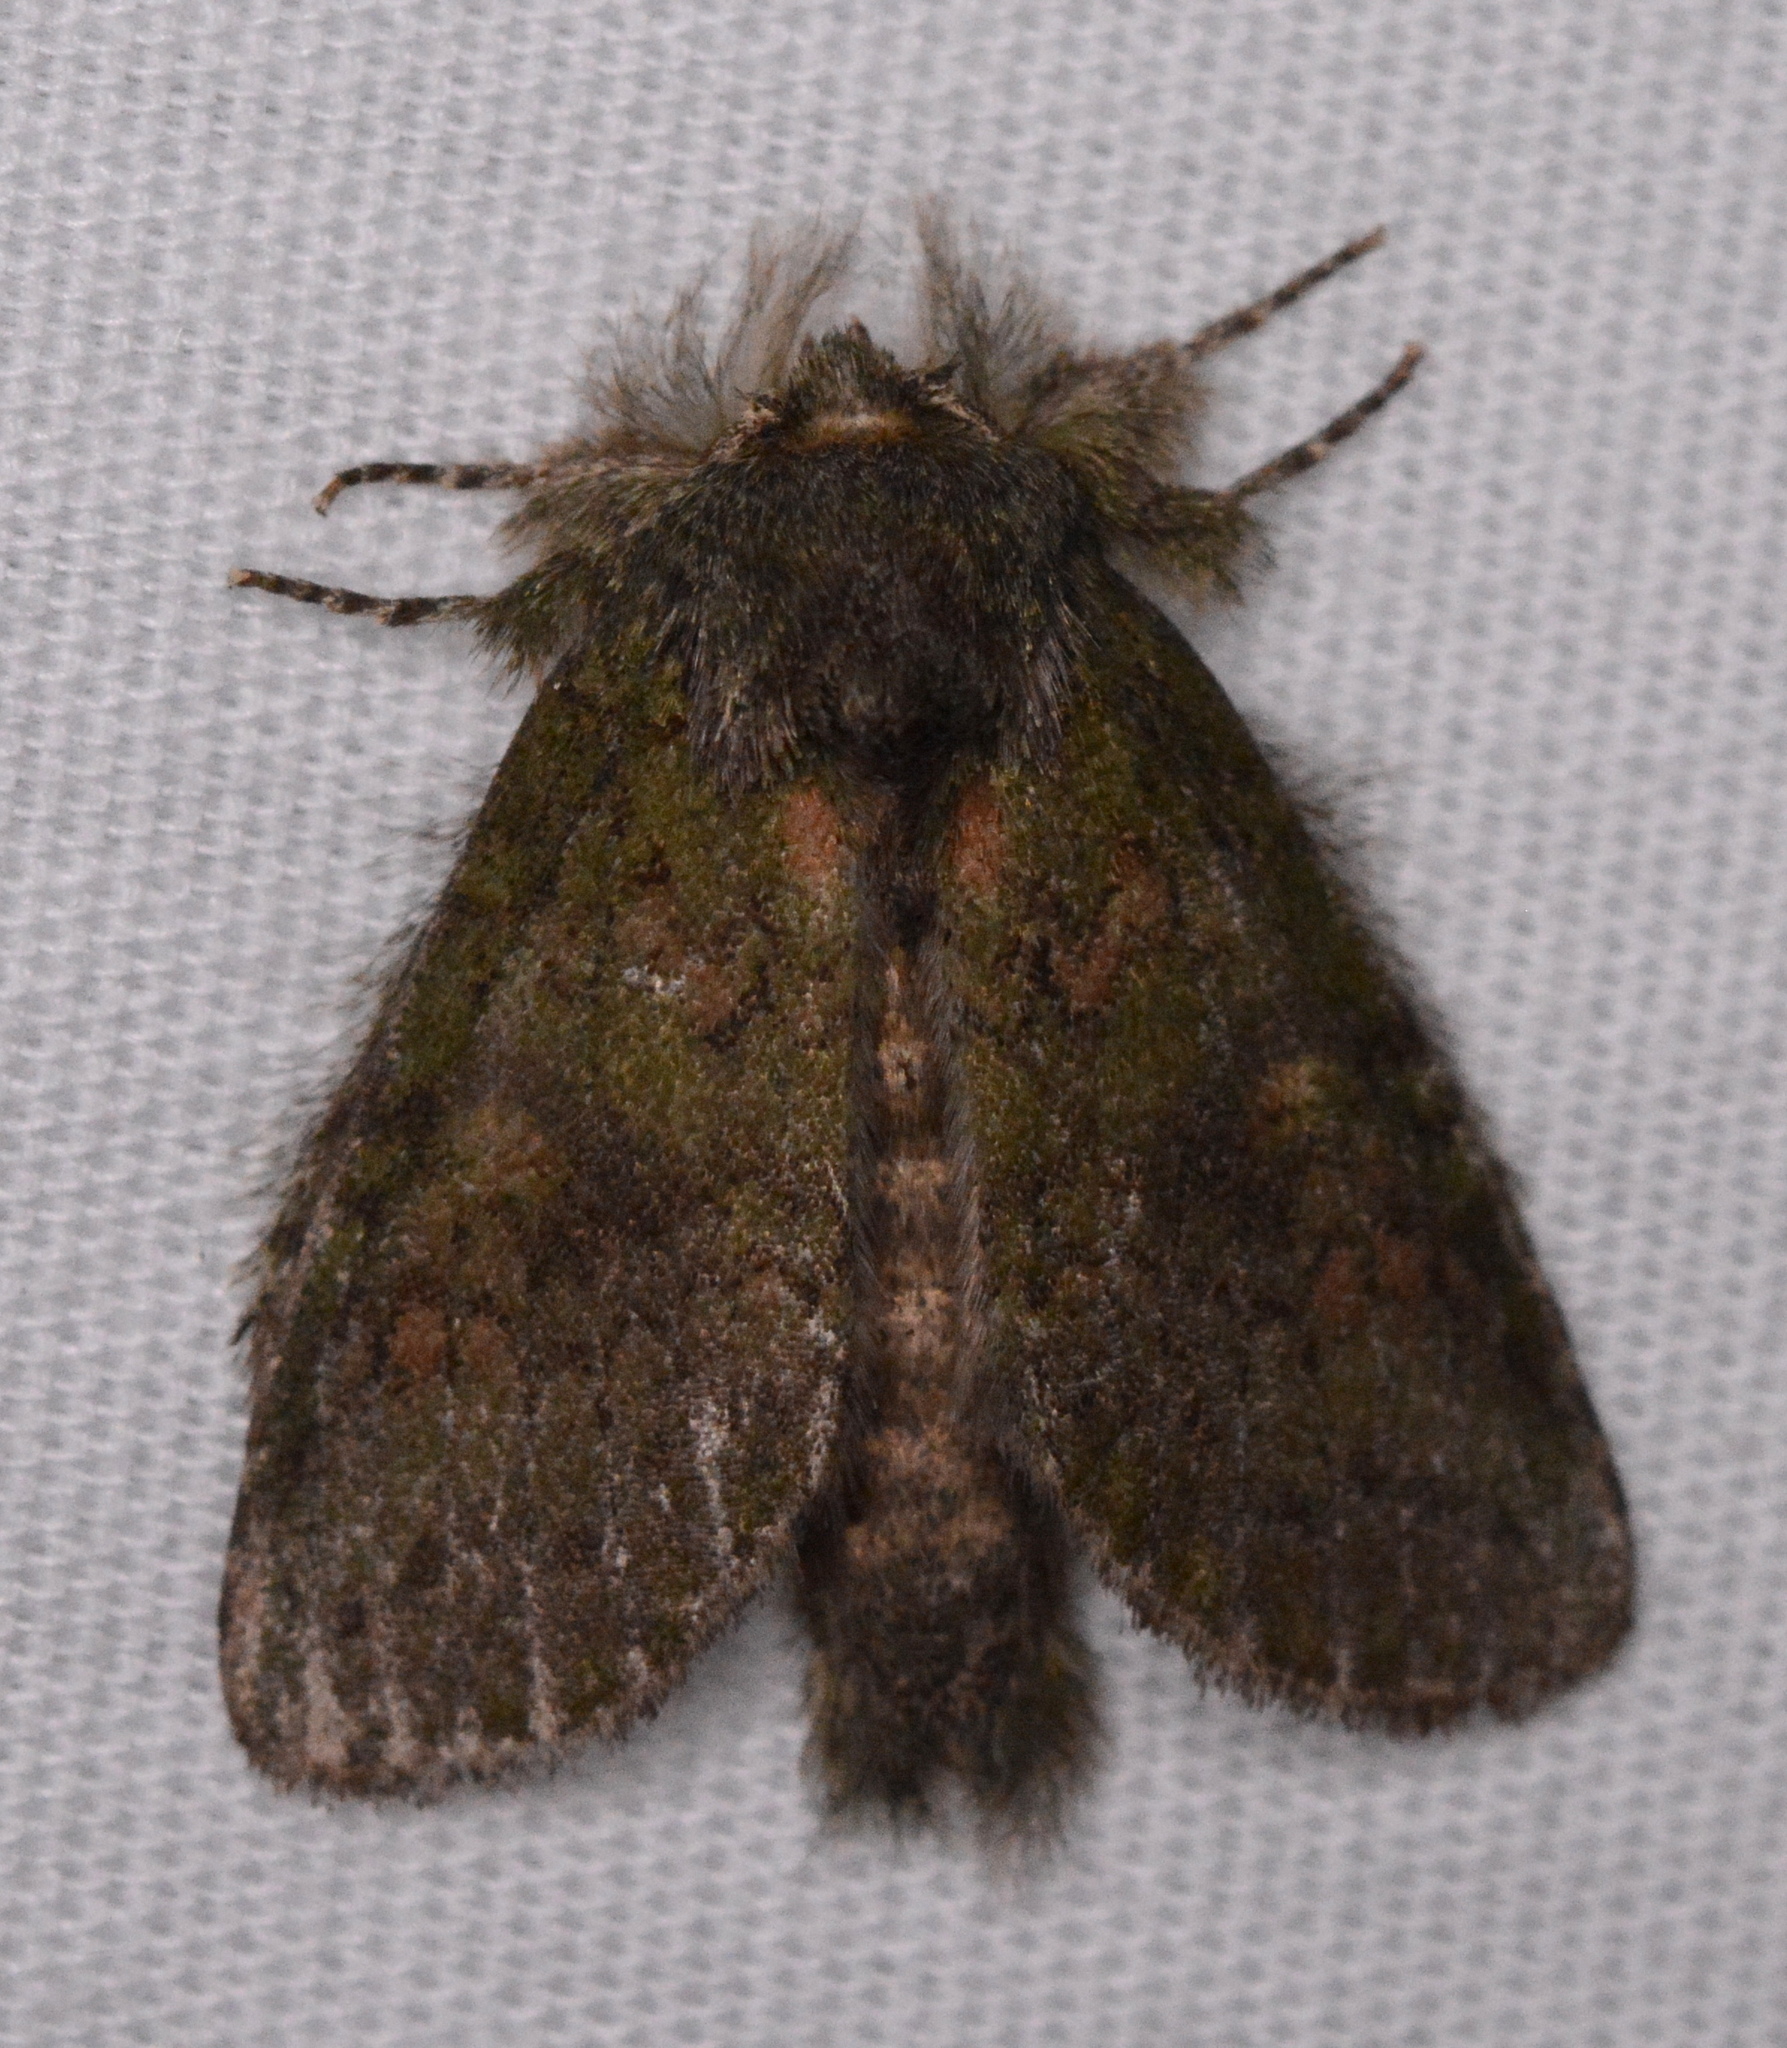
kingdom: Animalia
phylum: Arthropoda
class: Insecta
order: Lepidoptera
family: Notodontidae
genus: Disphragis
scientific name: Disphragis Cecrita guttivitta
